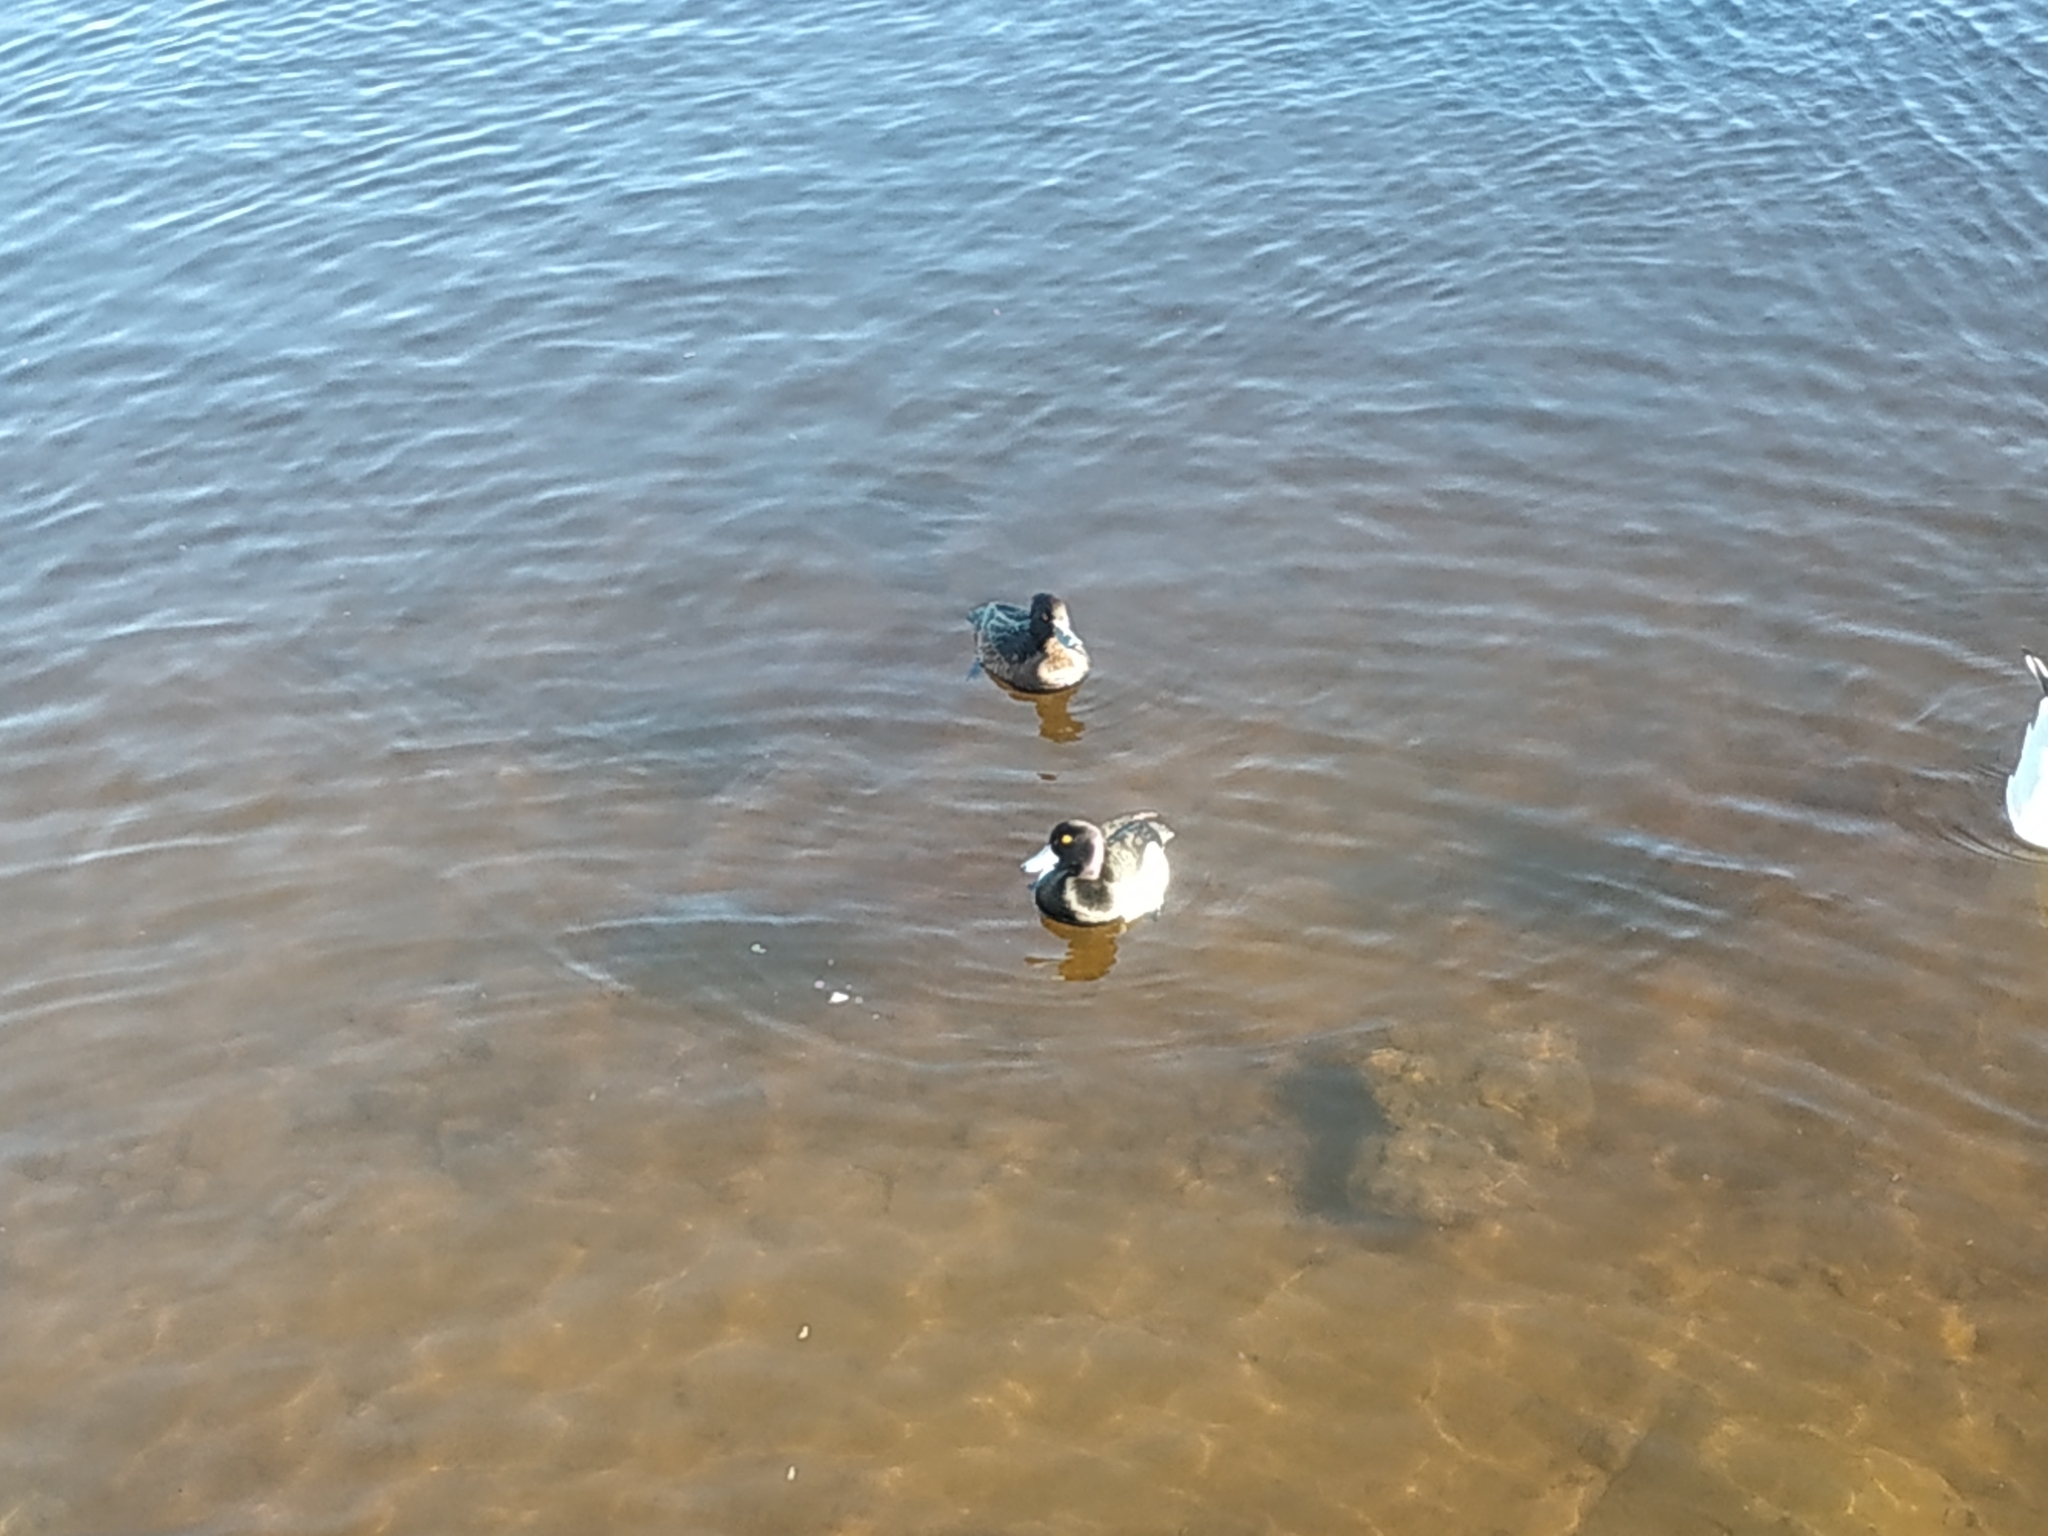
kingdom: Animalia
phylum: Chordata
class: Aves
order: Anseriformes
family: Anatidae
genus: Aythya
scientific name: Aythya fuligula
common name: Tufted duck
